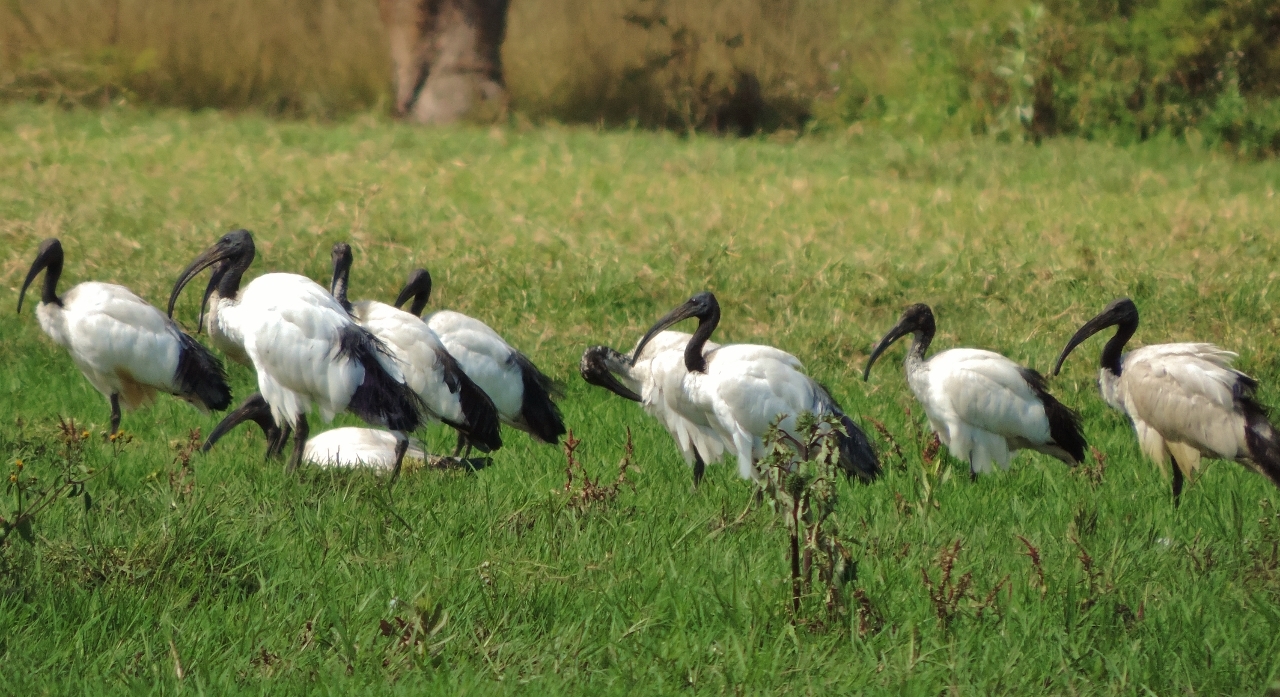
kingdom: Animalia
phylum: Chordata
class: Aves
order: Pelecaniformes
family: Threskiornithidae
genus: Threskiornis
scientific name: Threskiornis aethiopicus
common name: Sacred ibis
